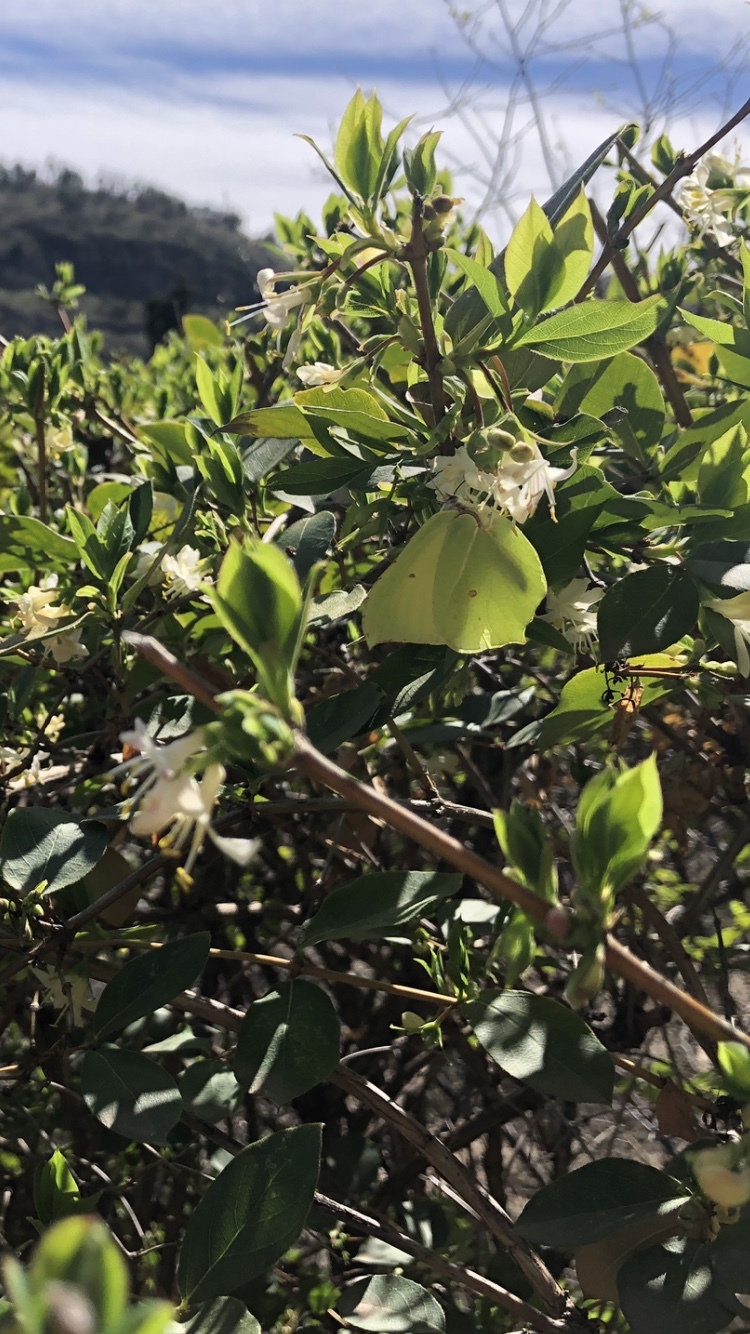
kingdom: Animalia
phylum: Arthropoda
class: Insecta
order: Lepidoptera
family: Pieridae
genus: Gonepteryx
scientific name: Gonepteryx rhamni
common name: Brimstone
